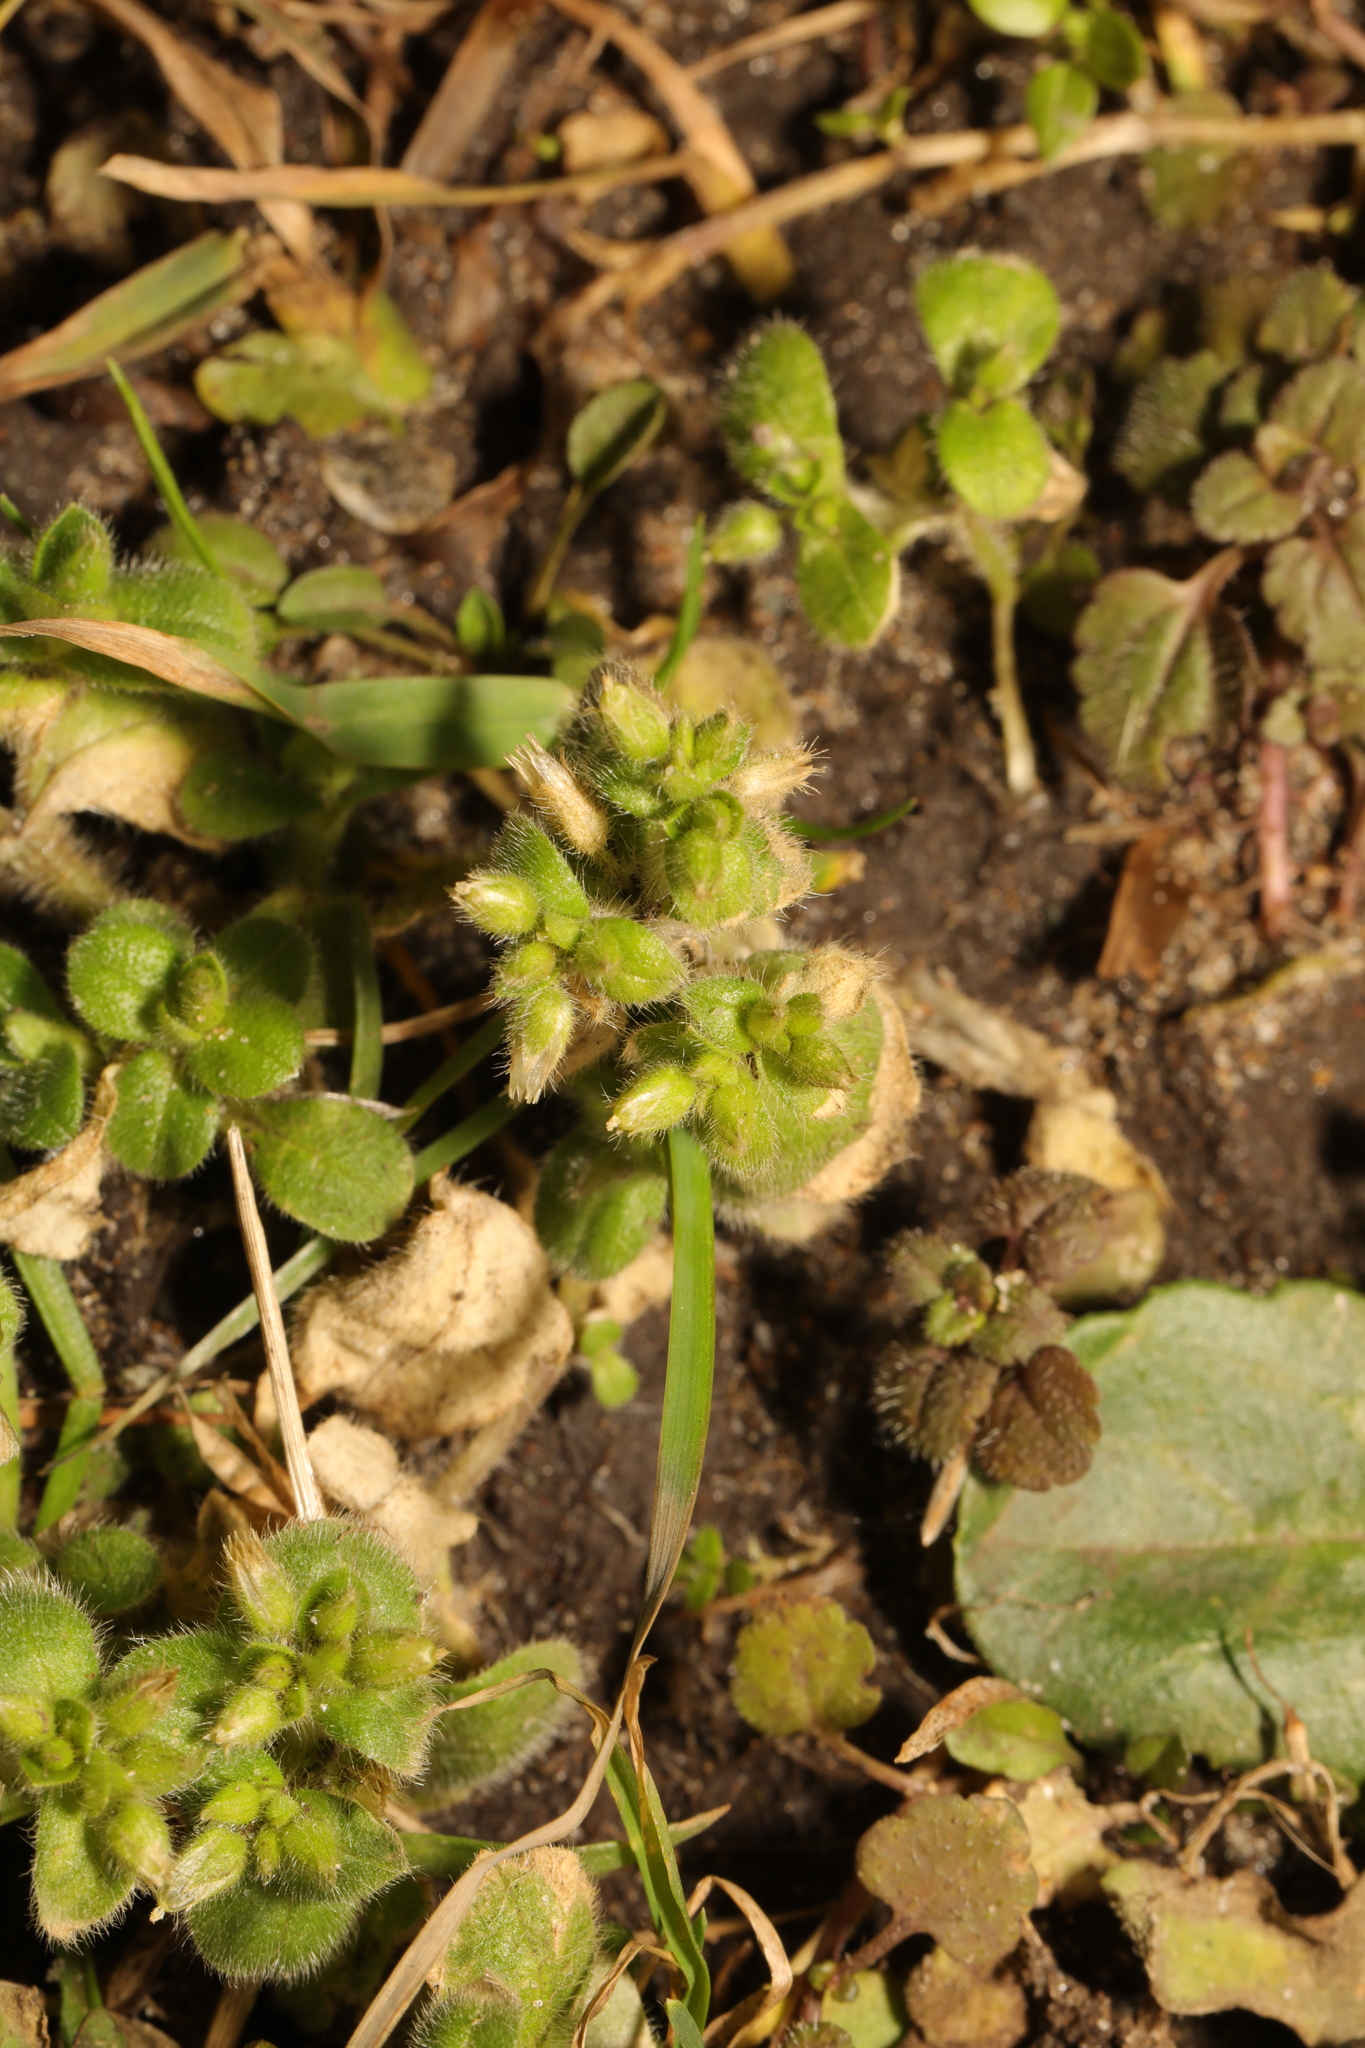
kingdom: Plantae
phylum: Tracheophyta
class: Magnoliopsida
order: Caryophyllales
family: Caryophyllaceae
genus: Cerastium
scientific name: Cerastium glomeratum
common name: Sticky chickweed
